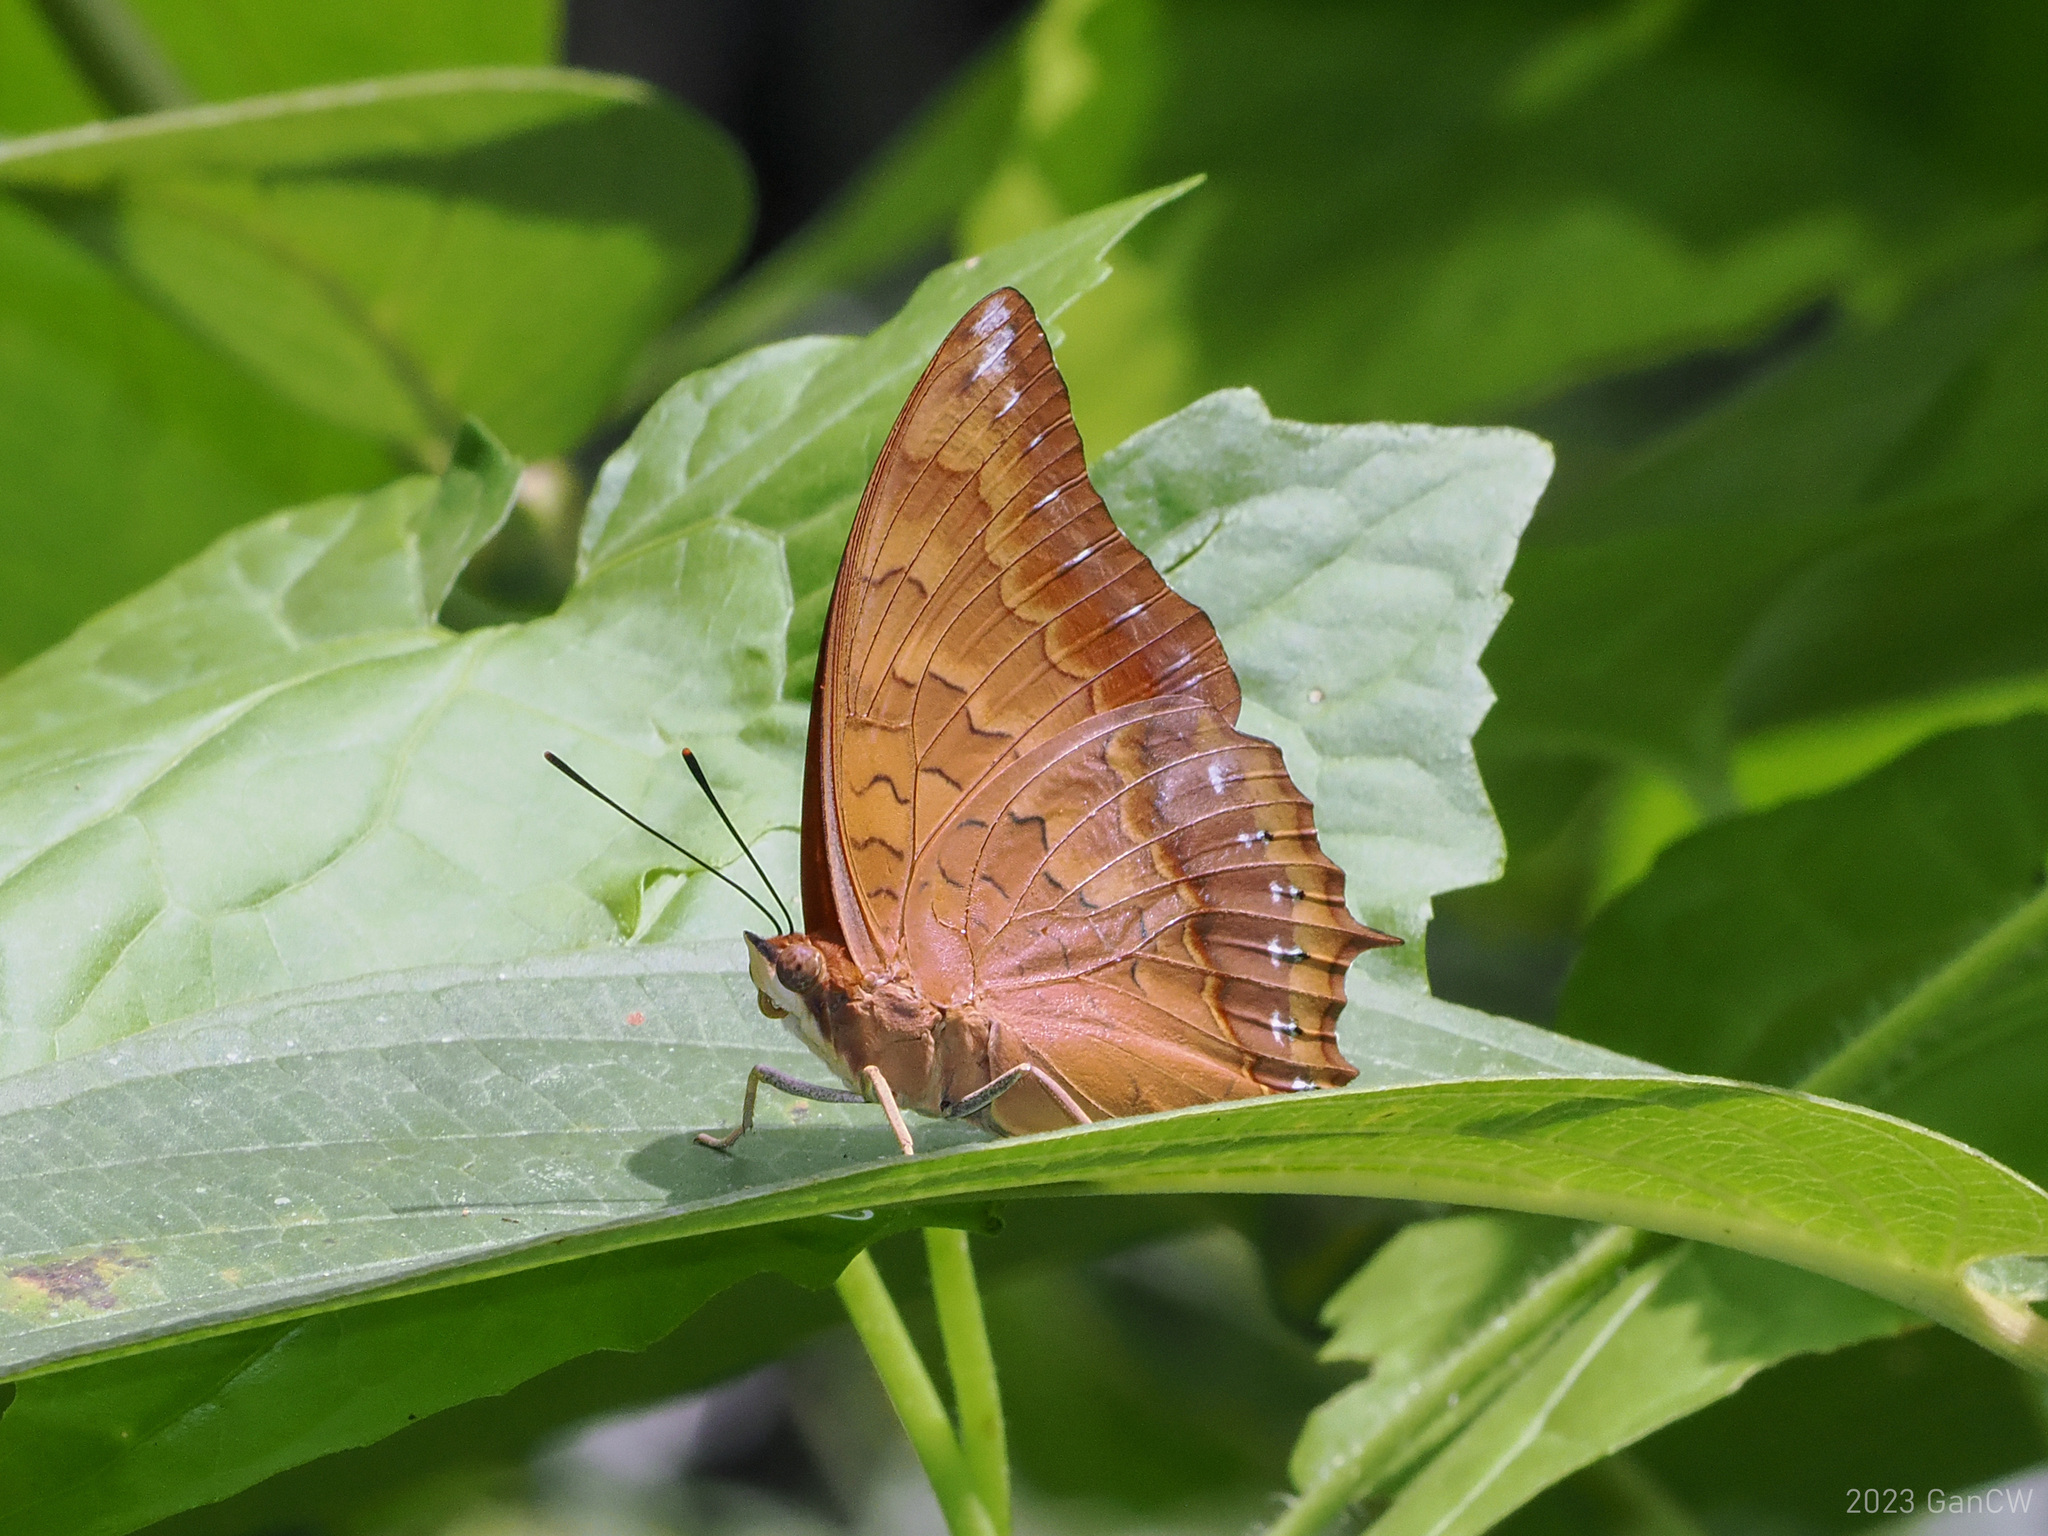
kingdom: Animalia
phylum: Arthropoda
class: Insecta
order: Lepidoptera
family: Nymphalidae
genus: Charaxes
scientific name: Charaxes affinis
